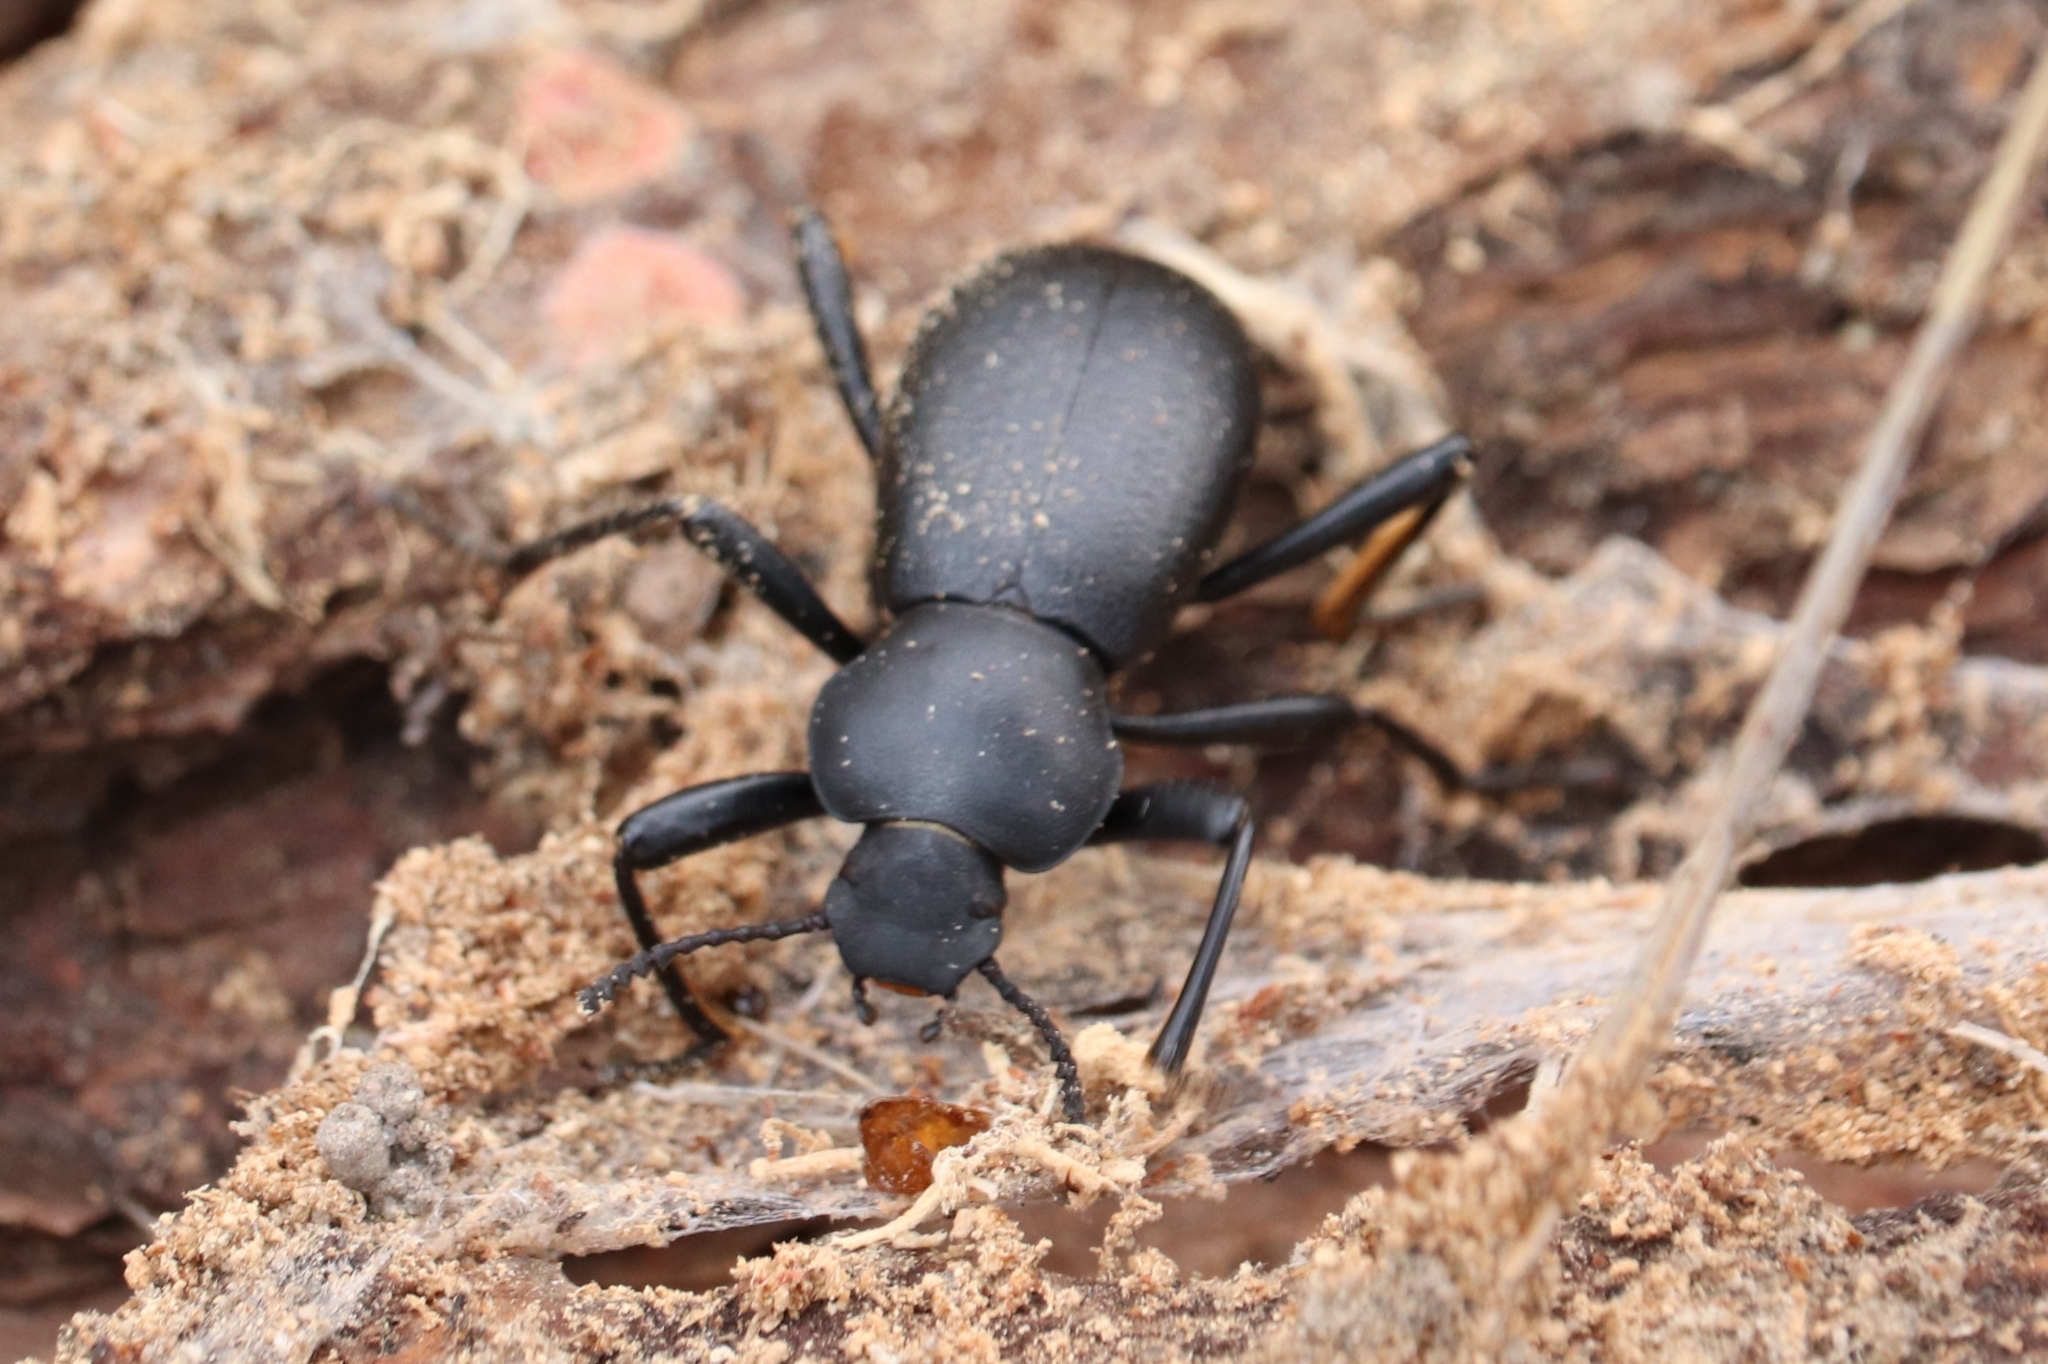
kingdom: Animalia
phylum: Arthropoda
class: Insecta
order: Coleoptera
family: Tenebrionidae
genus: Coelocnemis
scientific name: Coelocnemis dilaticollis
